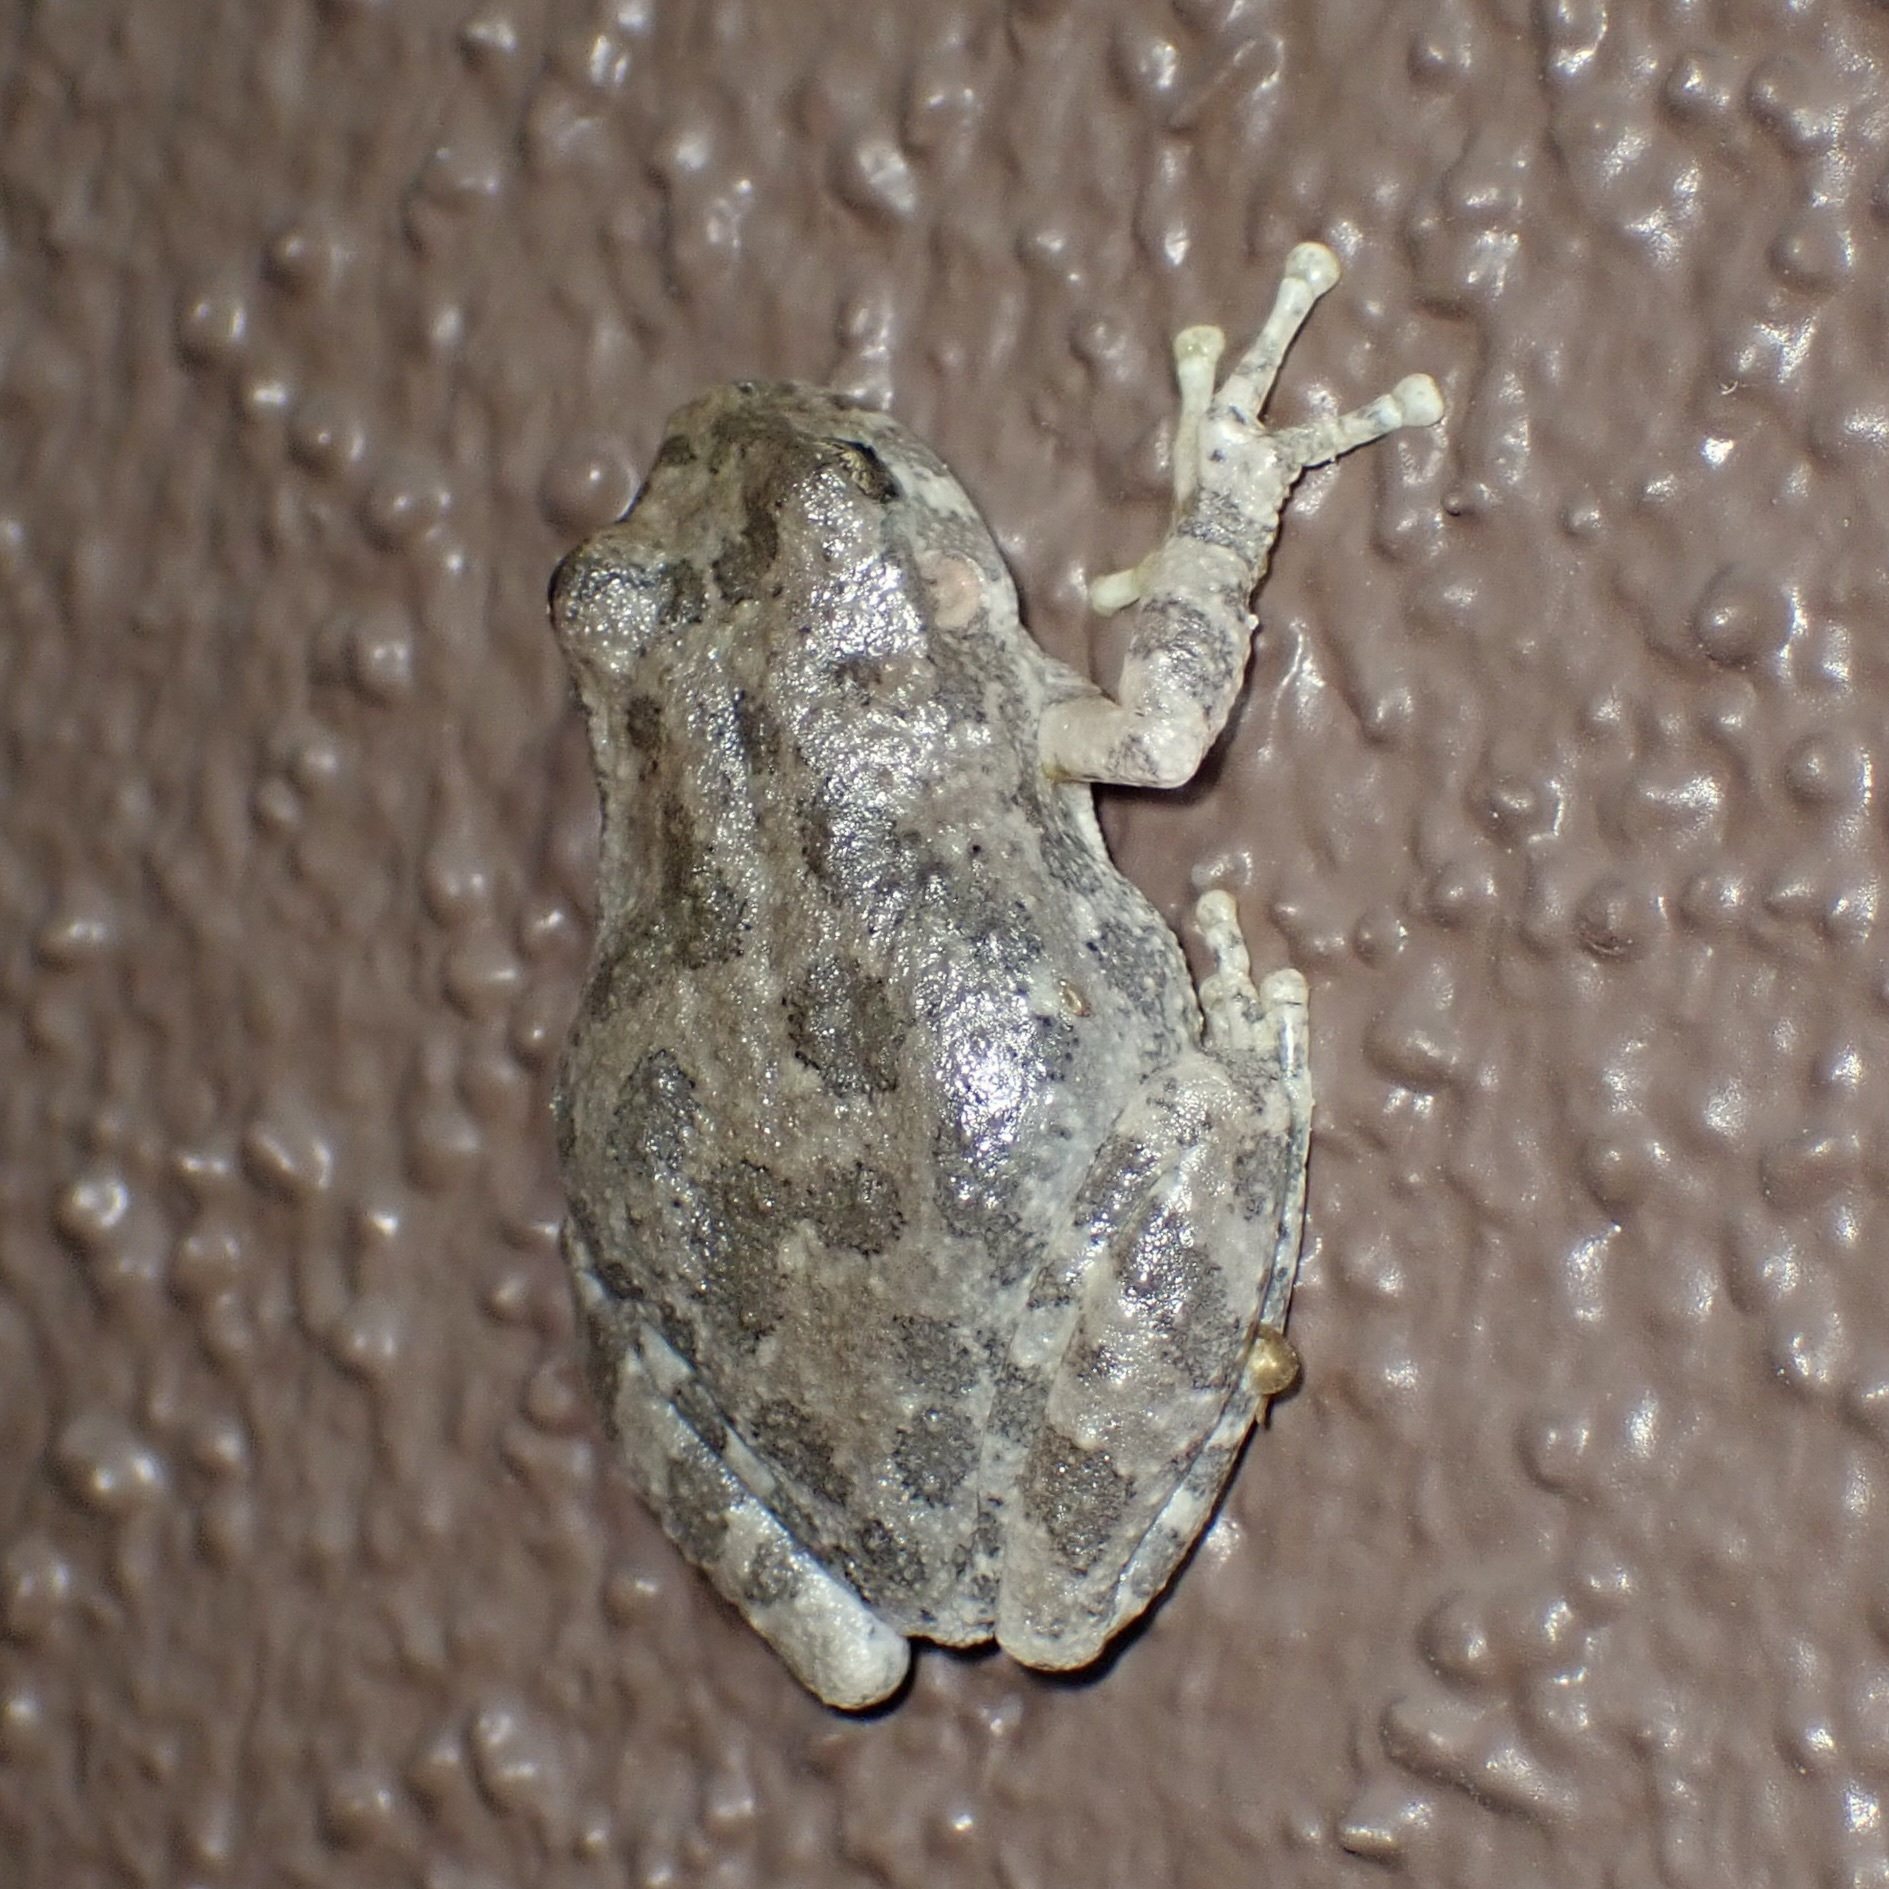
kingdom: Animalia
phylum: Chordata
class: Amphibia
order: Anura
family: Hylidae
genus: Dryophytes
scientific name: Dryophytes arenicolor
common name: Canyon treefrog
